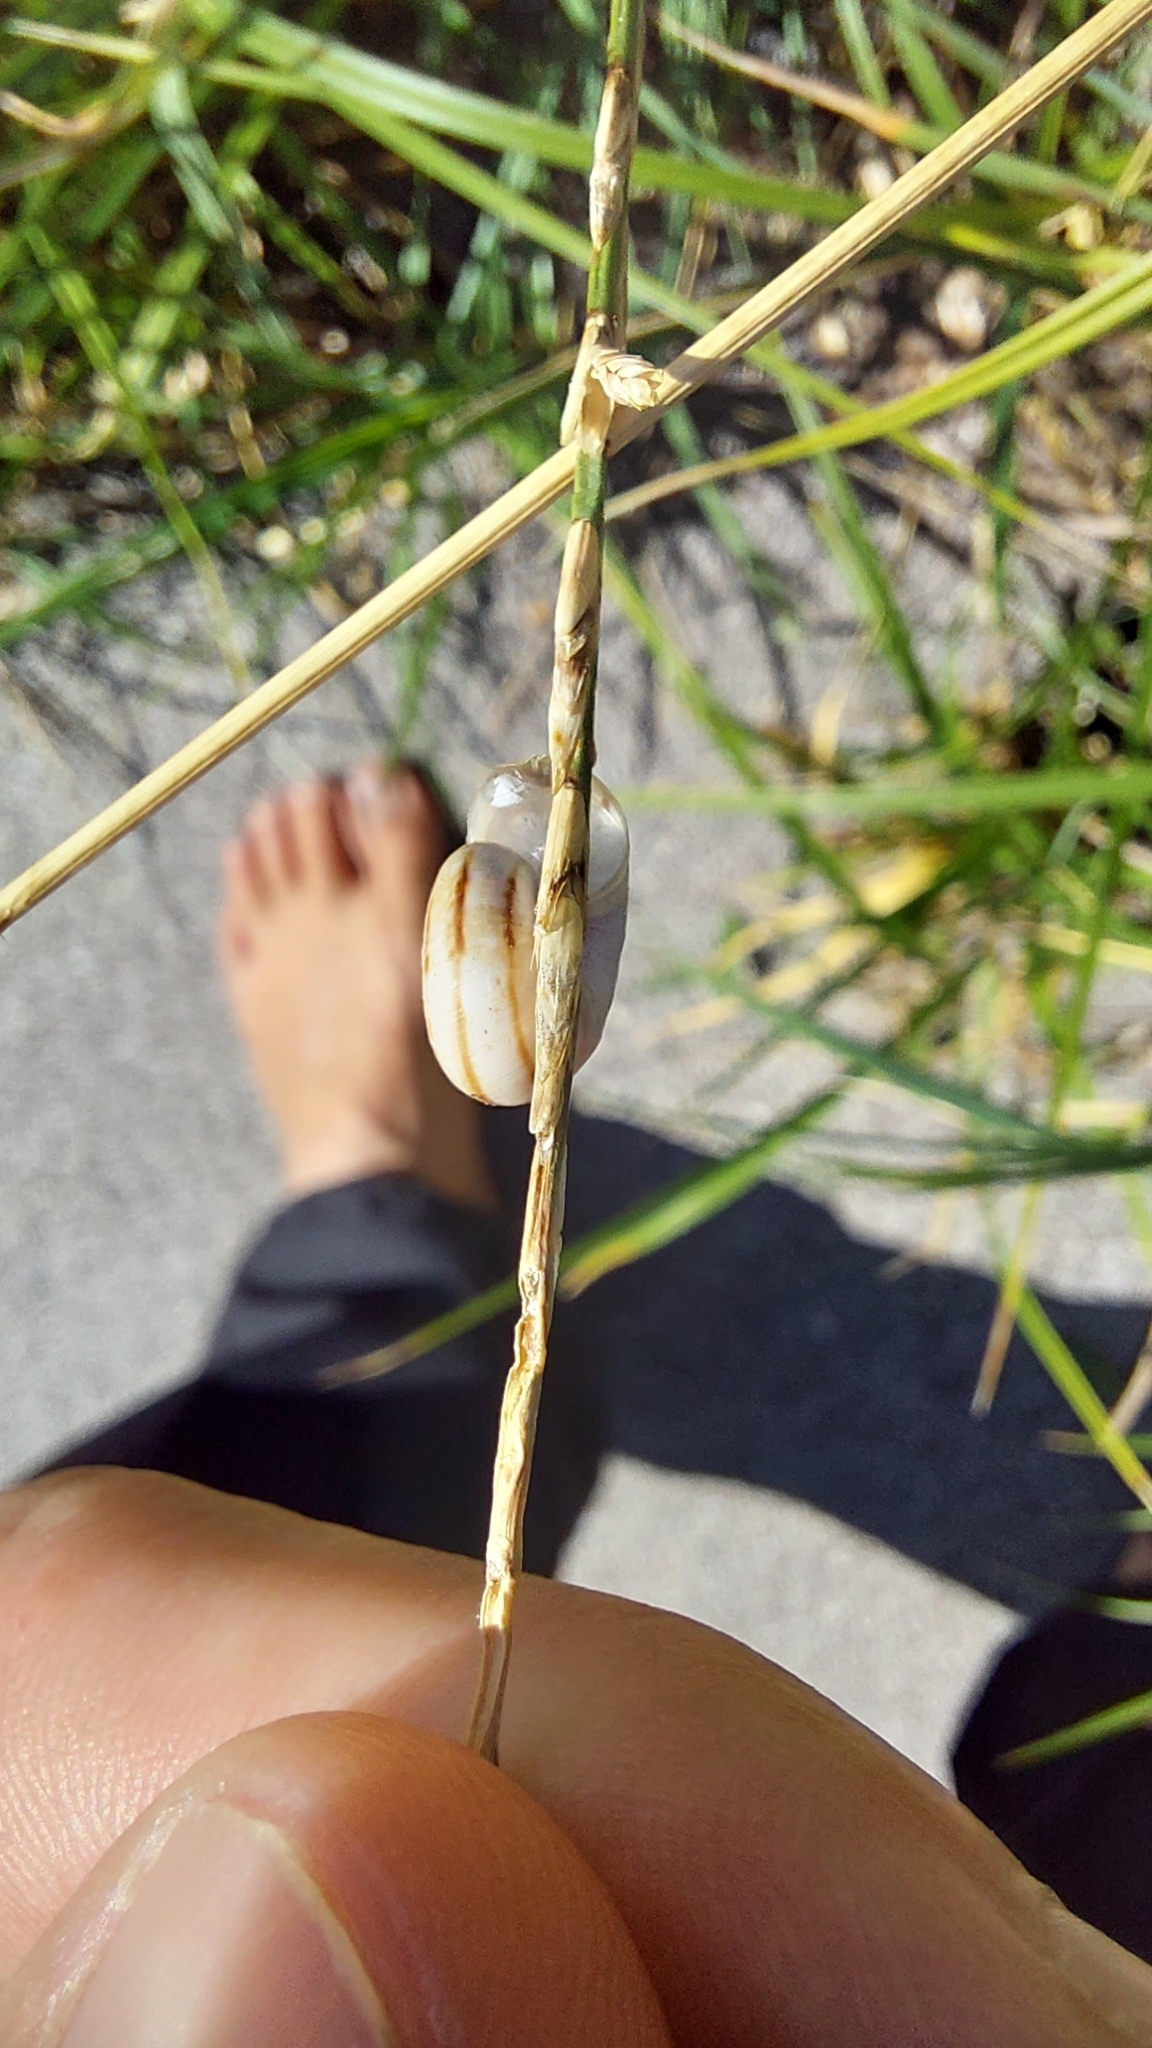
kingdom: Animalia
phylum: Mollusca
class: Gastropoda
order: Stylommatophora
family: Geomitridae
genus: Xerolenta
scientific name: Xerolenta obvia
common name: White heath snail
